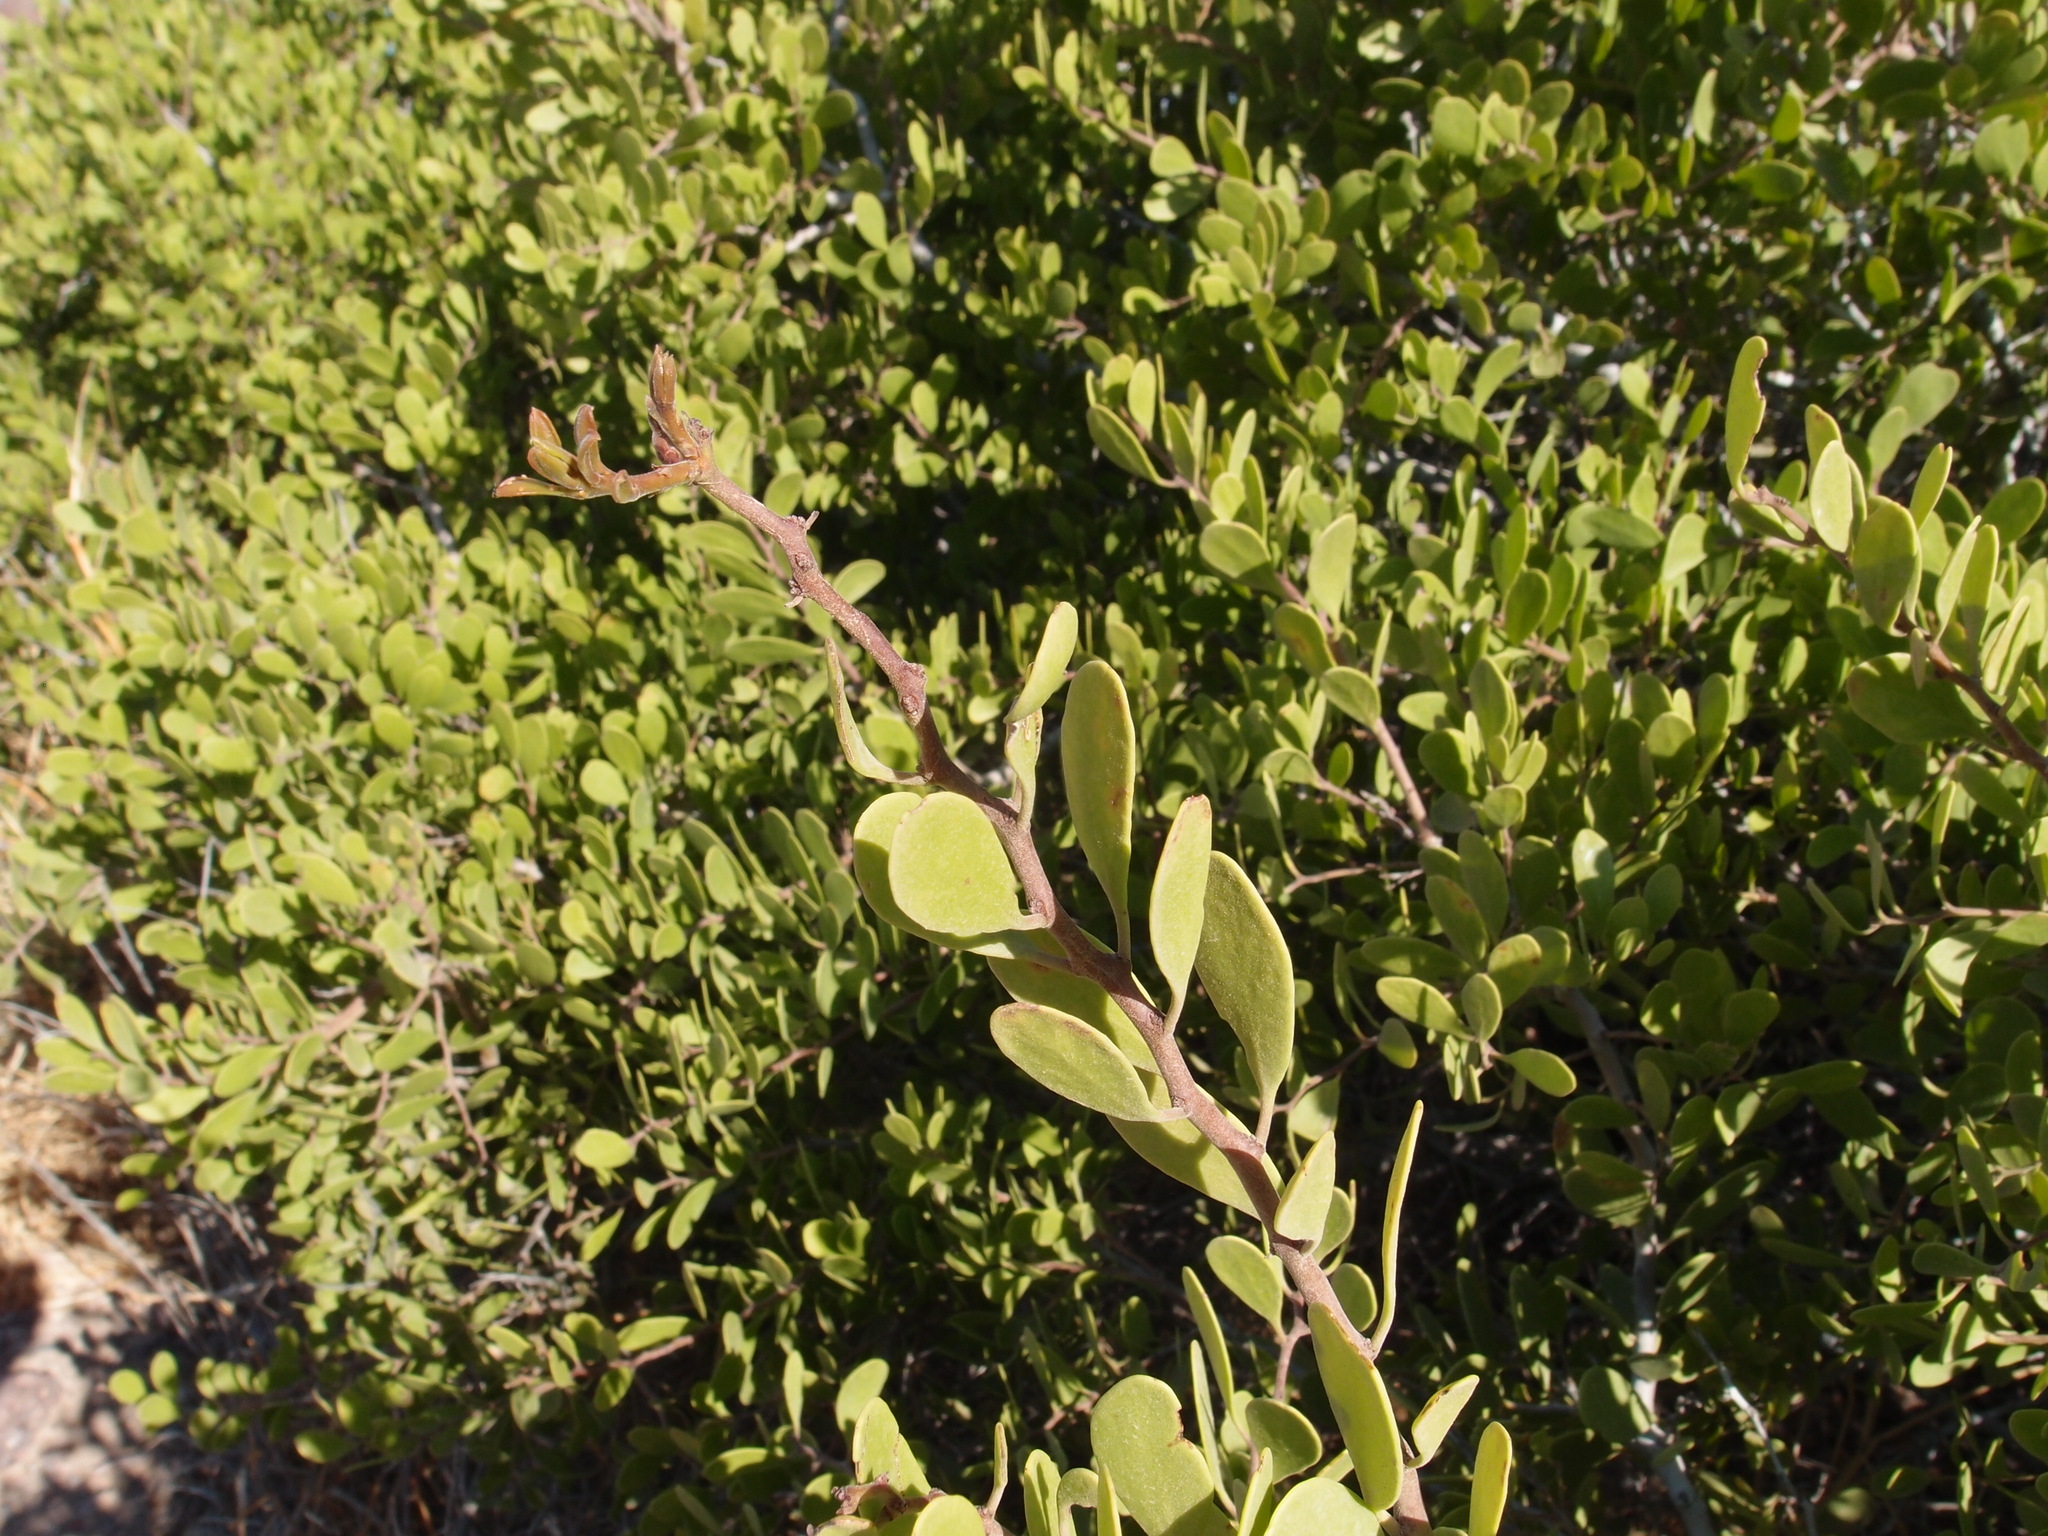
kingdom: Plantae
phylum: Tracheophyta
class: Magnoliopsida
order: Celastrales
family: Celastraceae
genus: Tricerma
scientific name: Tricerma phyllanthoides
